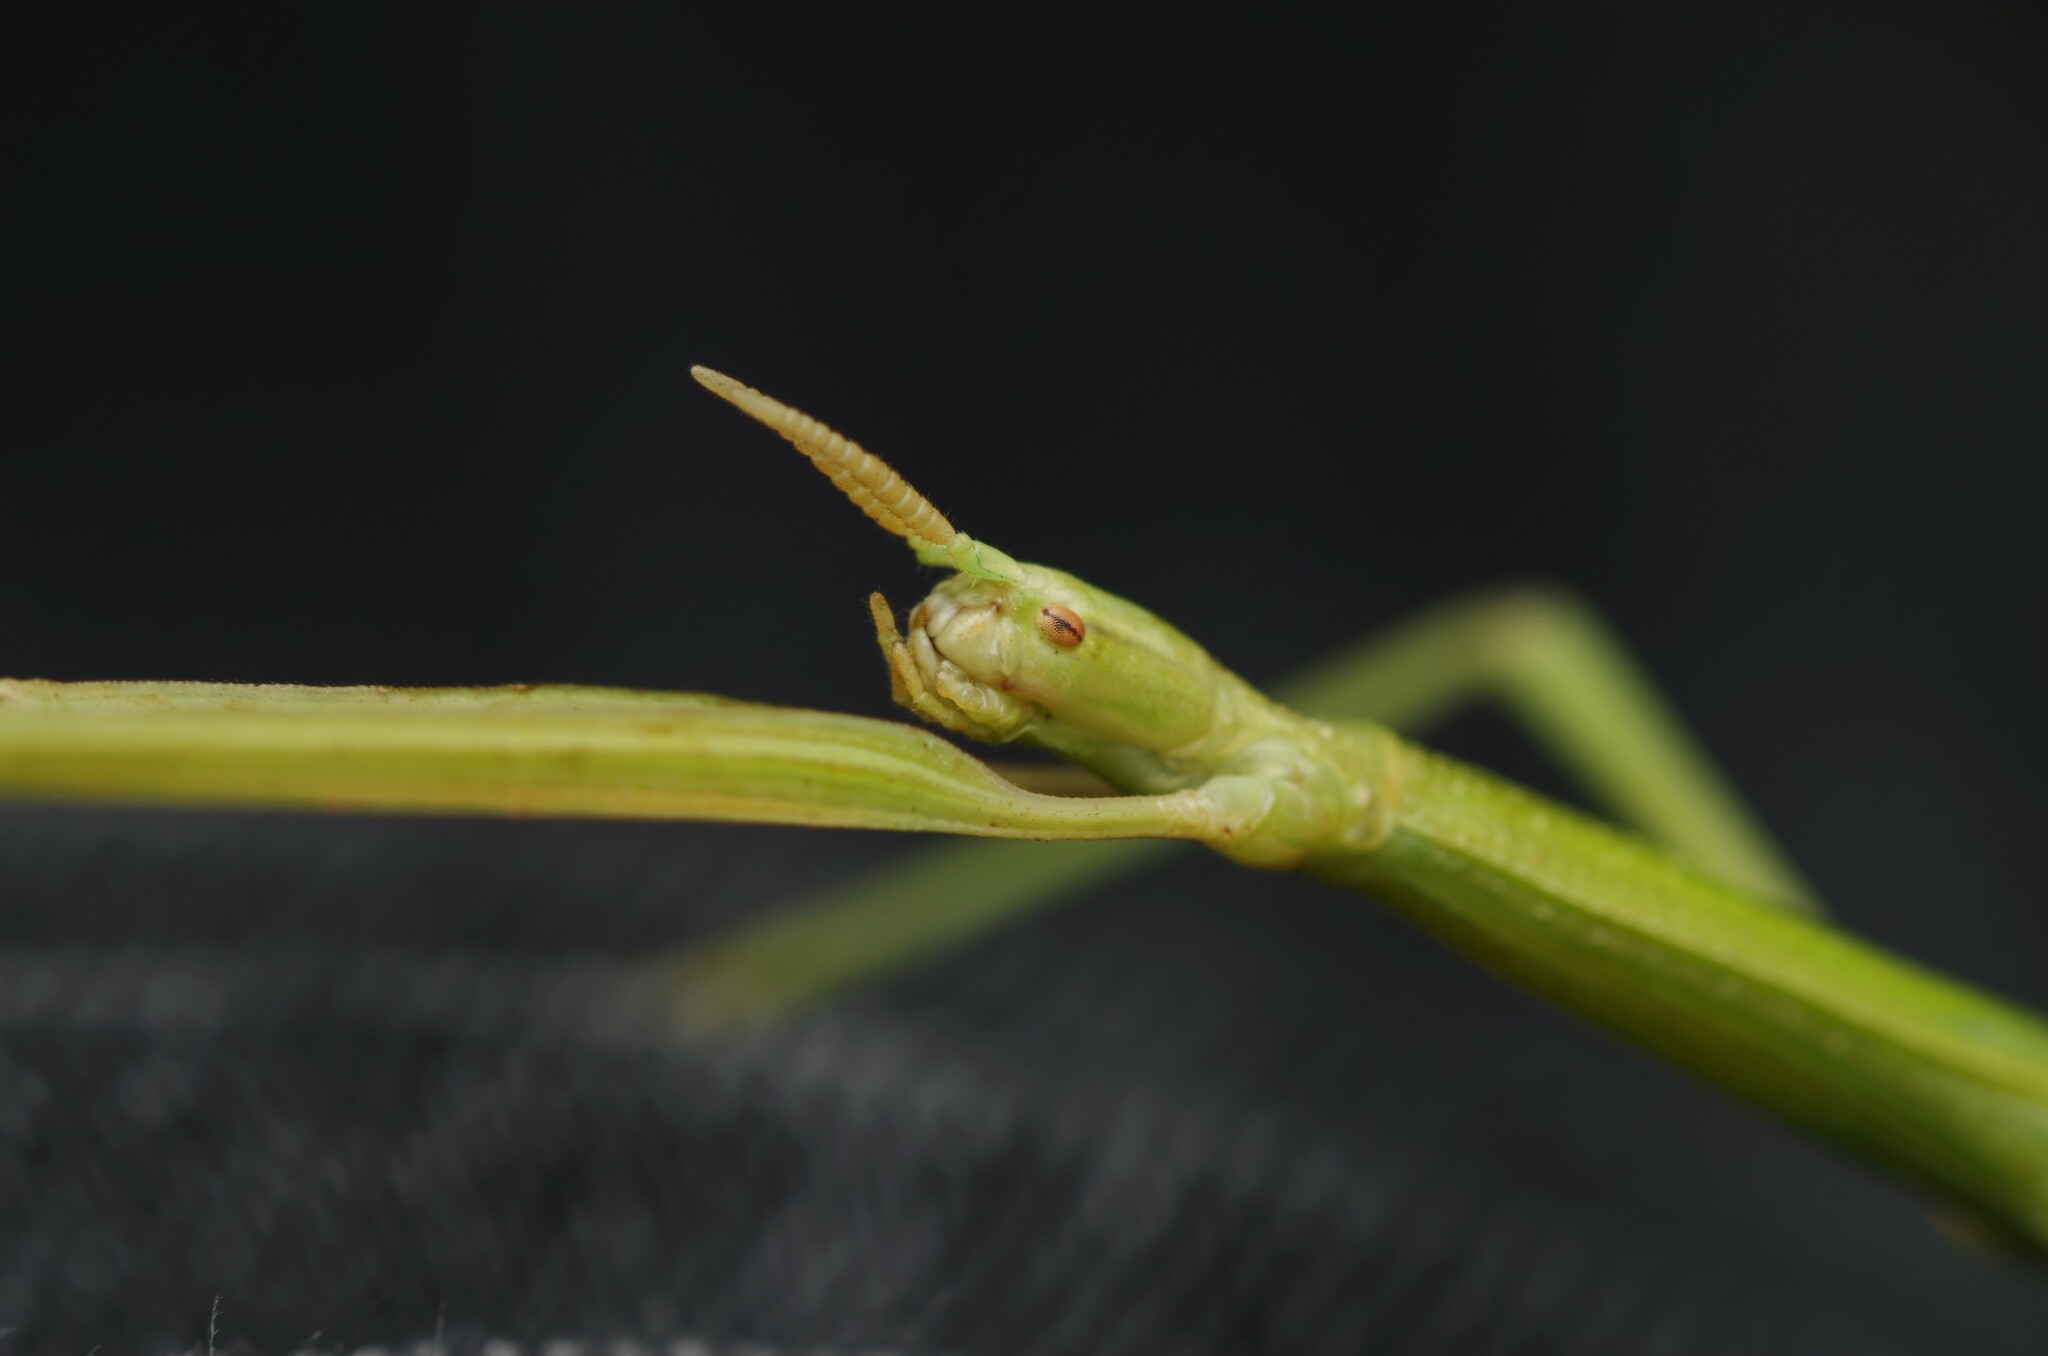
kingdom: Animalia
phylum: Arthropoda
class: Insecta
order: Phasmida
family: Bacillidae
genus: Clonopsis
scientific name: Clonopsis gallica
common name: French stick insect
